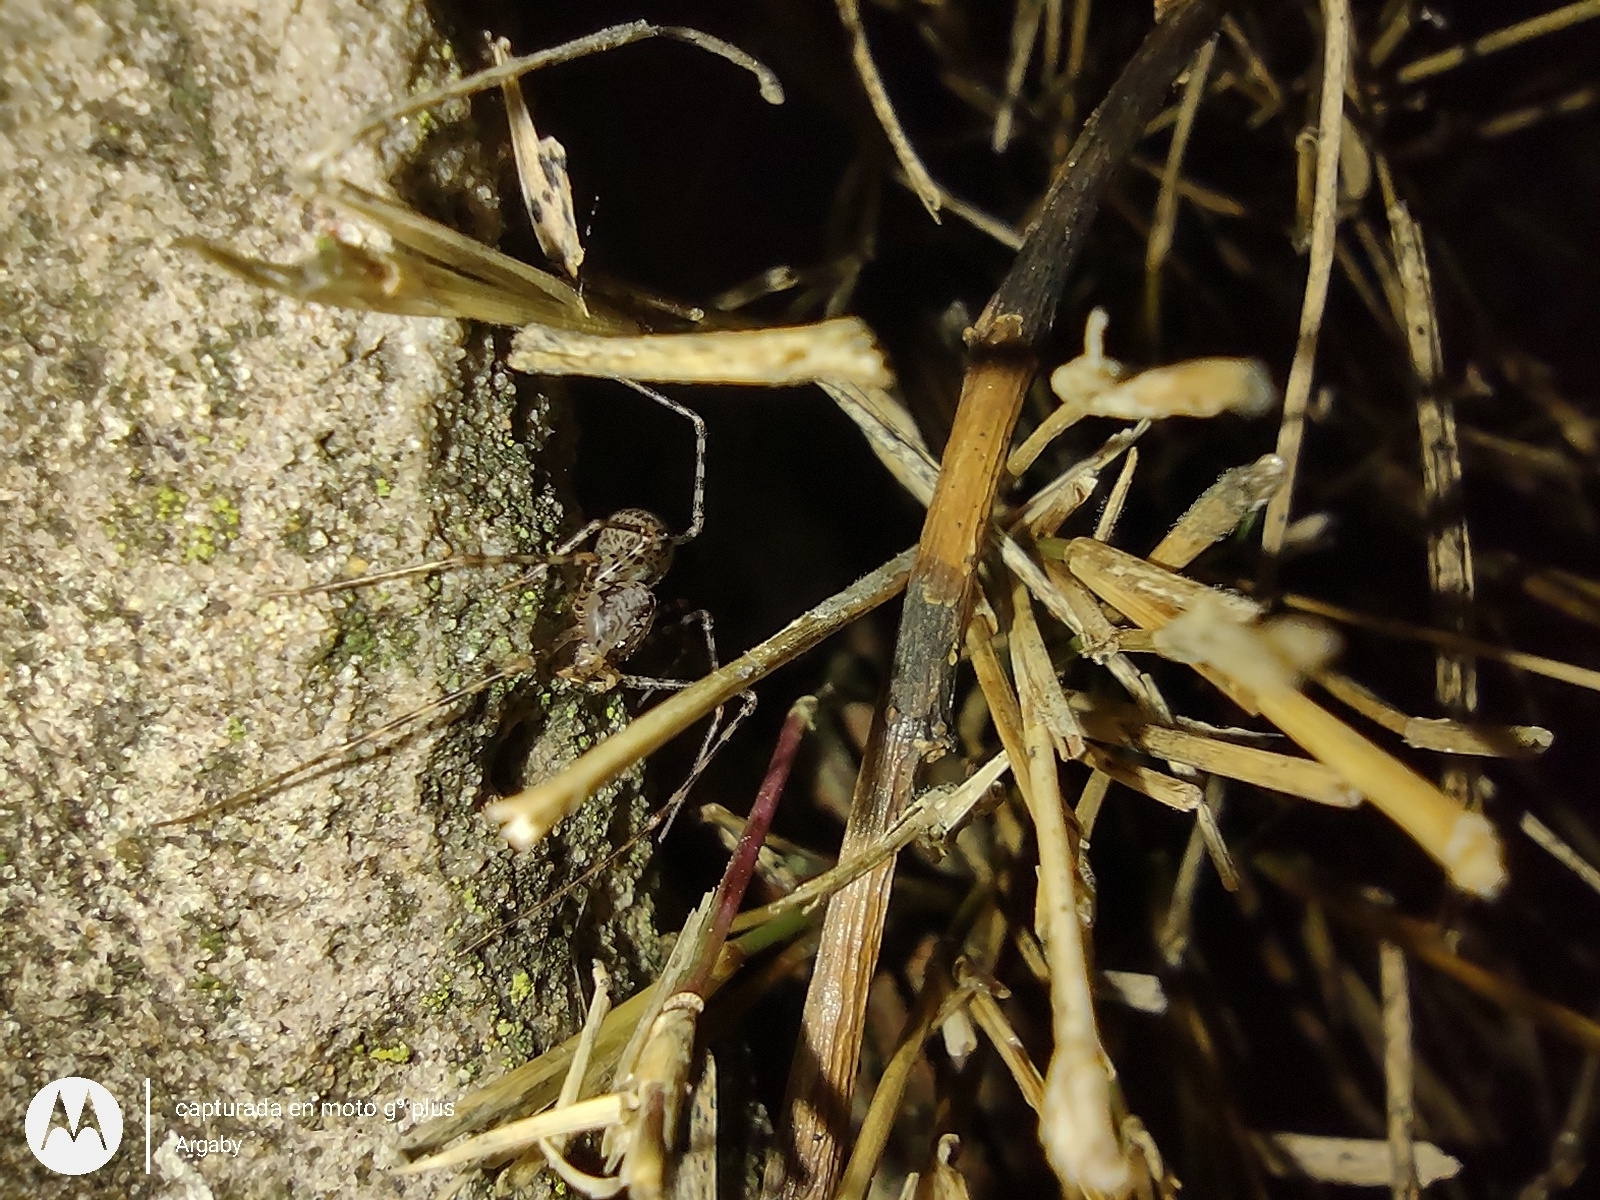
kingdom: Animalia
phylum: Arthropoda
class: Arachnida
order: Araneae
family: Scytodidae
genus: Scytodes
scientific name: Scytodes globula
